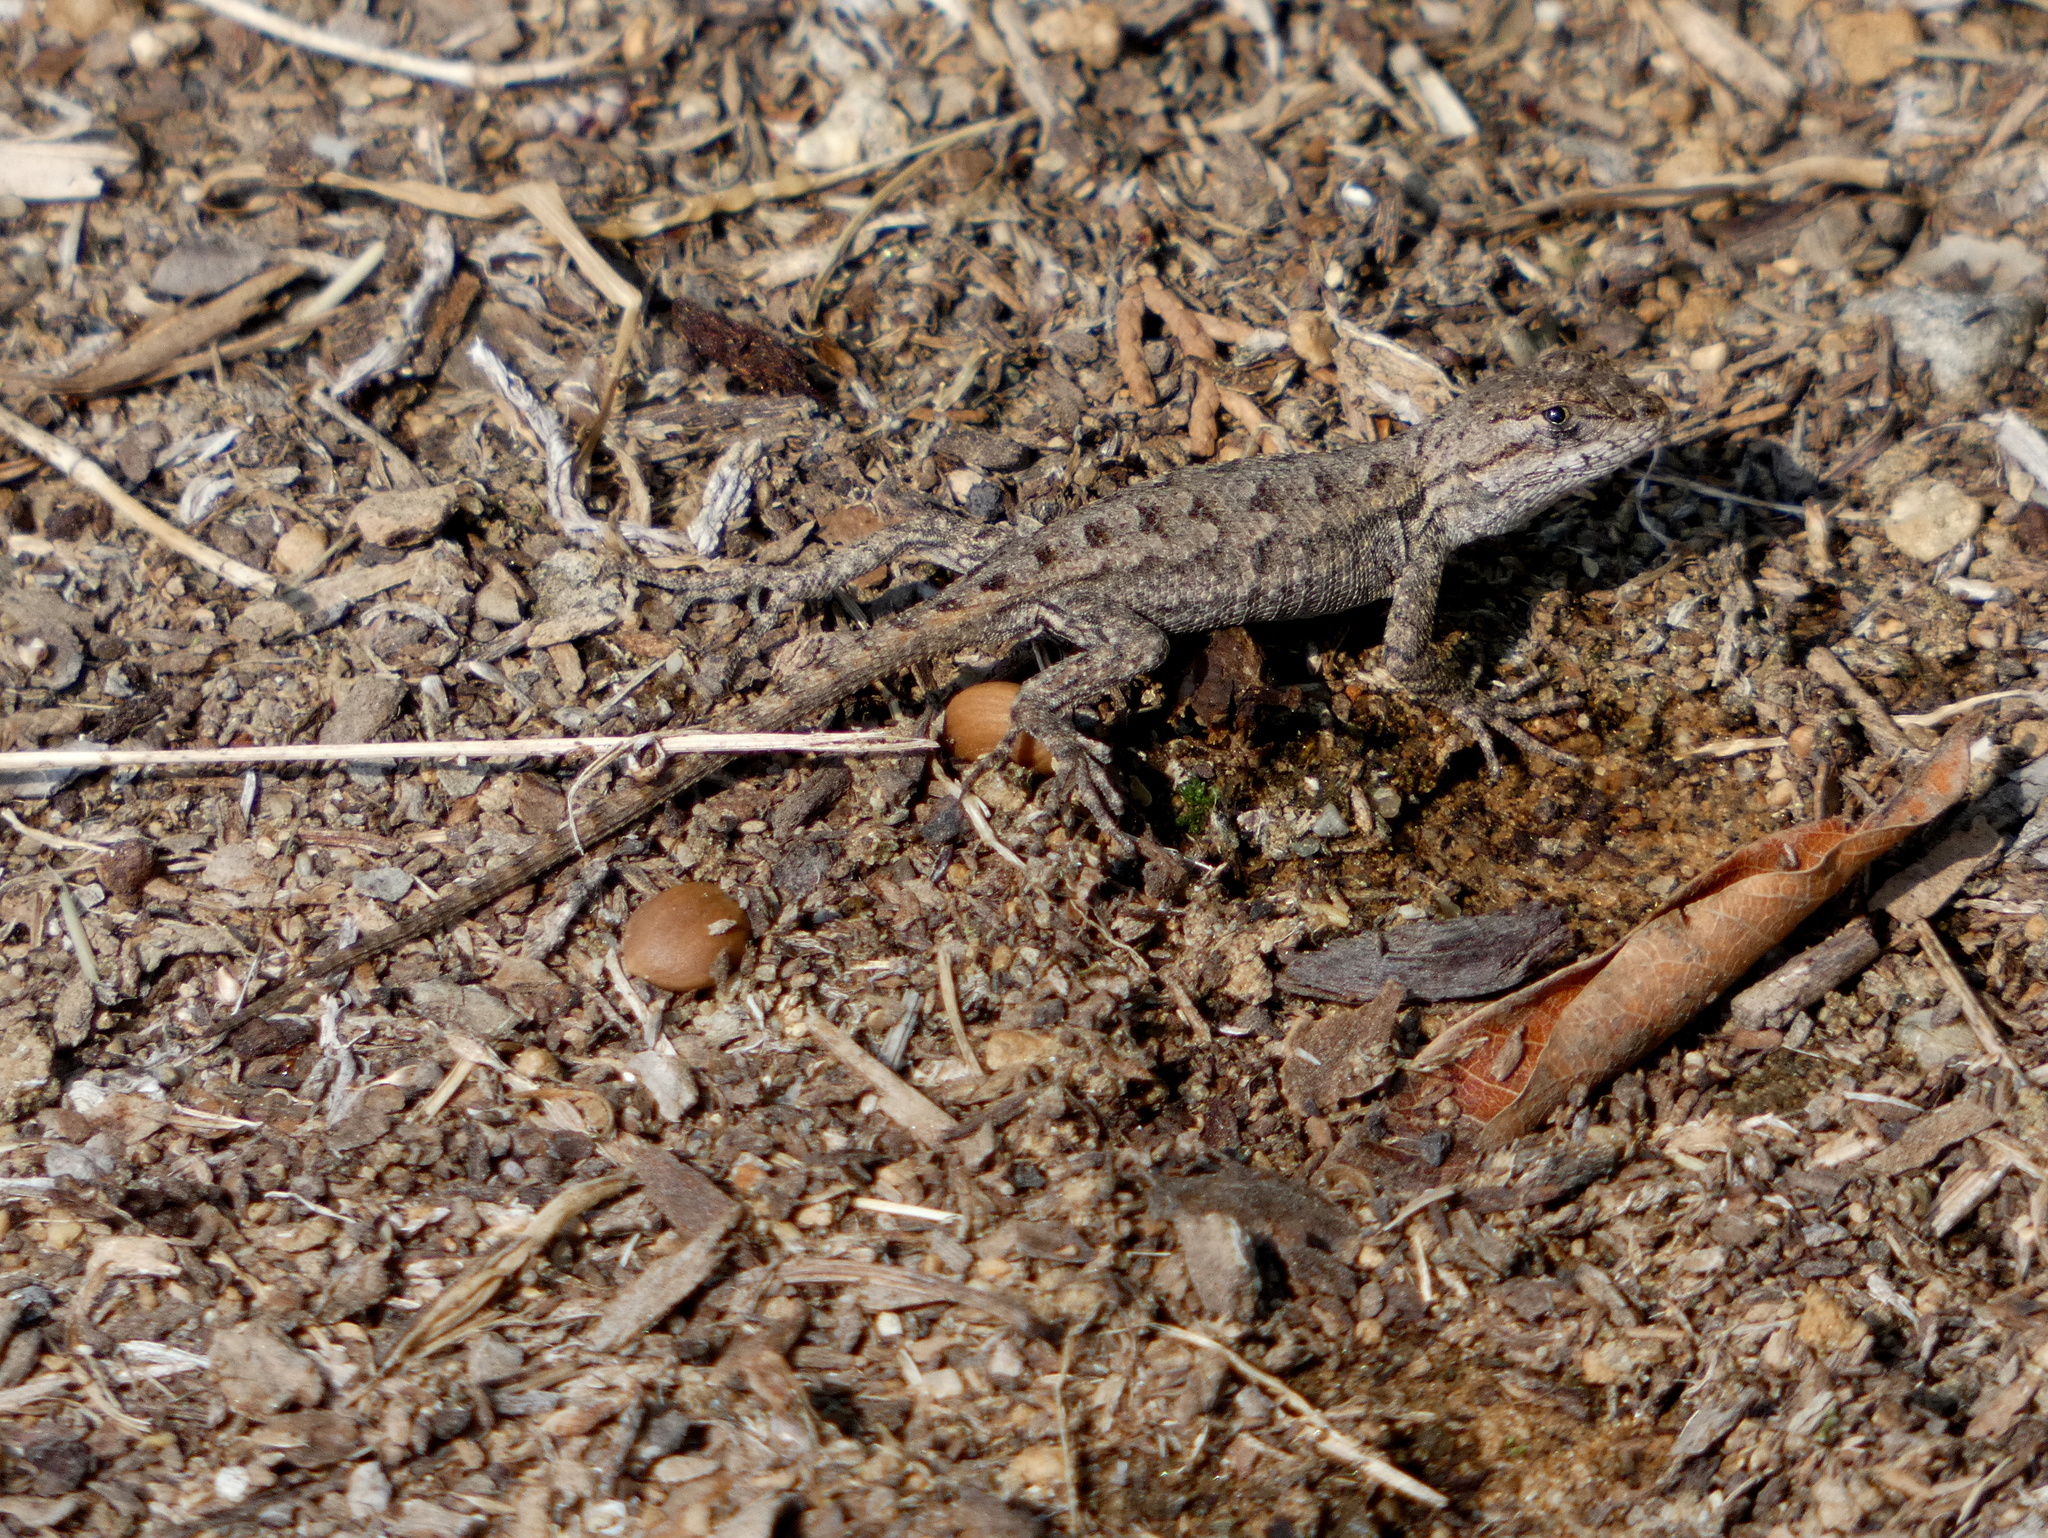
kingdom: Animalia
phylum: Chordata
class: Squamata
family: Phrynosomatidae
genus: Sceloporus
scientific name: Sceloporus occidentalis
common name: Western fence lizard
